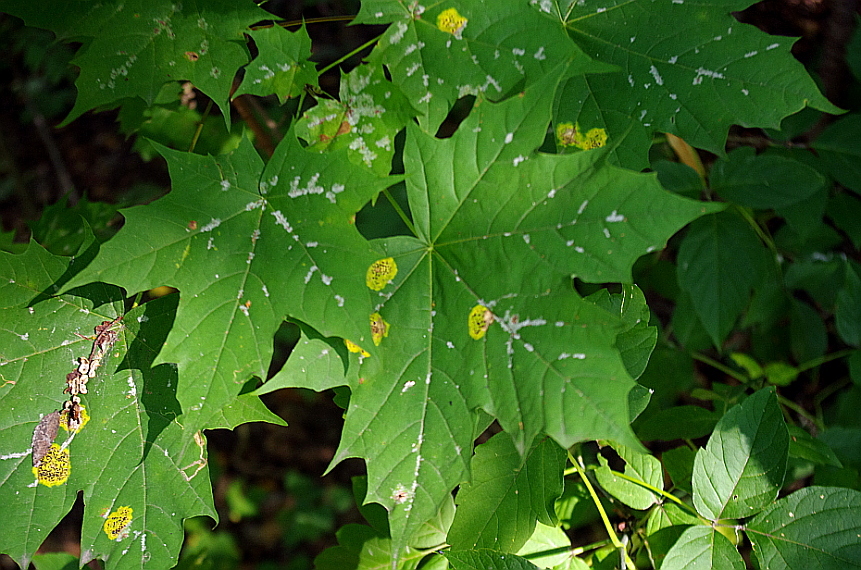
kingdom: Plantae
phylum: Tracheophyta
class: Magnoliopsida
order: Sapindales
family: Sapindaceae
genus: Acer
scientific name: Acer platanoides
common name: Norway maple
